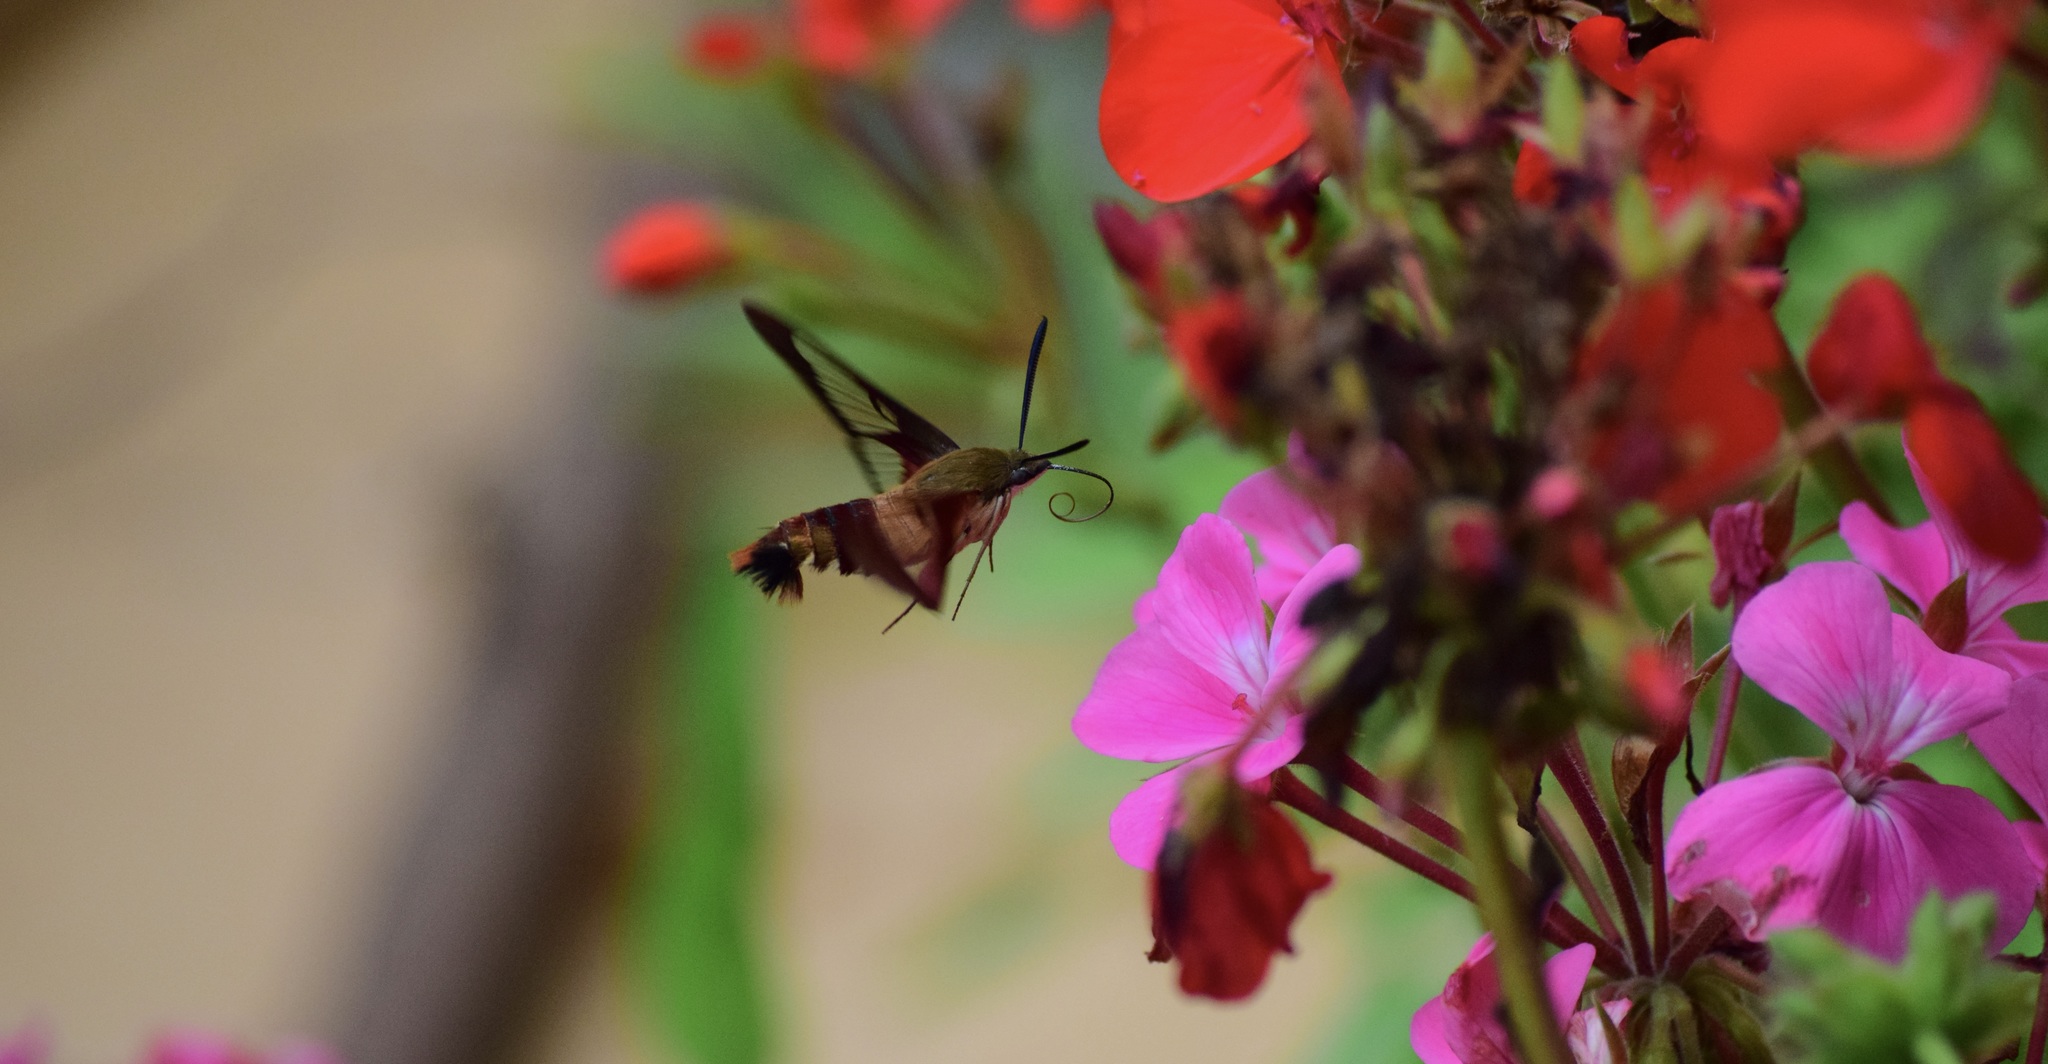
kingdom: Animalia
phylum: Arthropoda
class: Insecta
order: Lepidoptera
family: Sphingidae
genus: Hemaris
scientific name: Hemaris thysbe
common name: Common clear-wing
